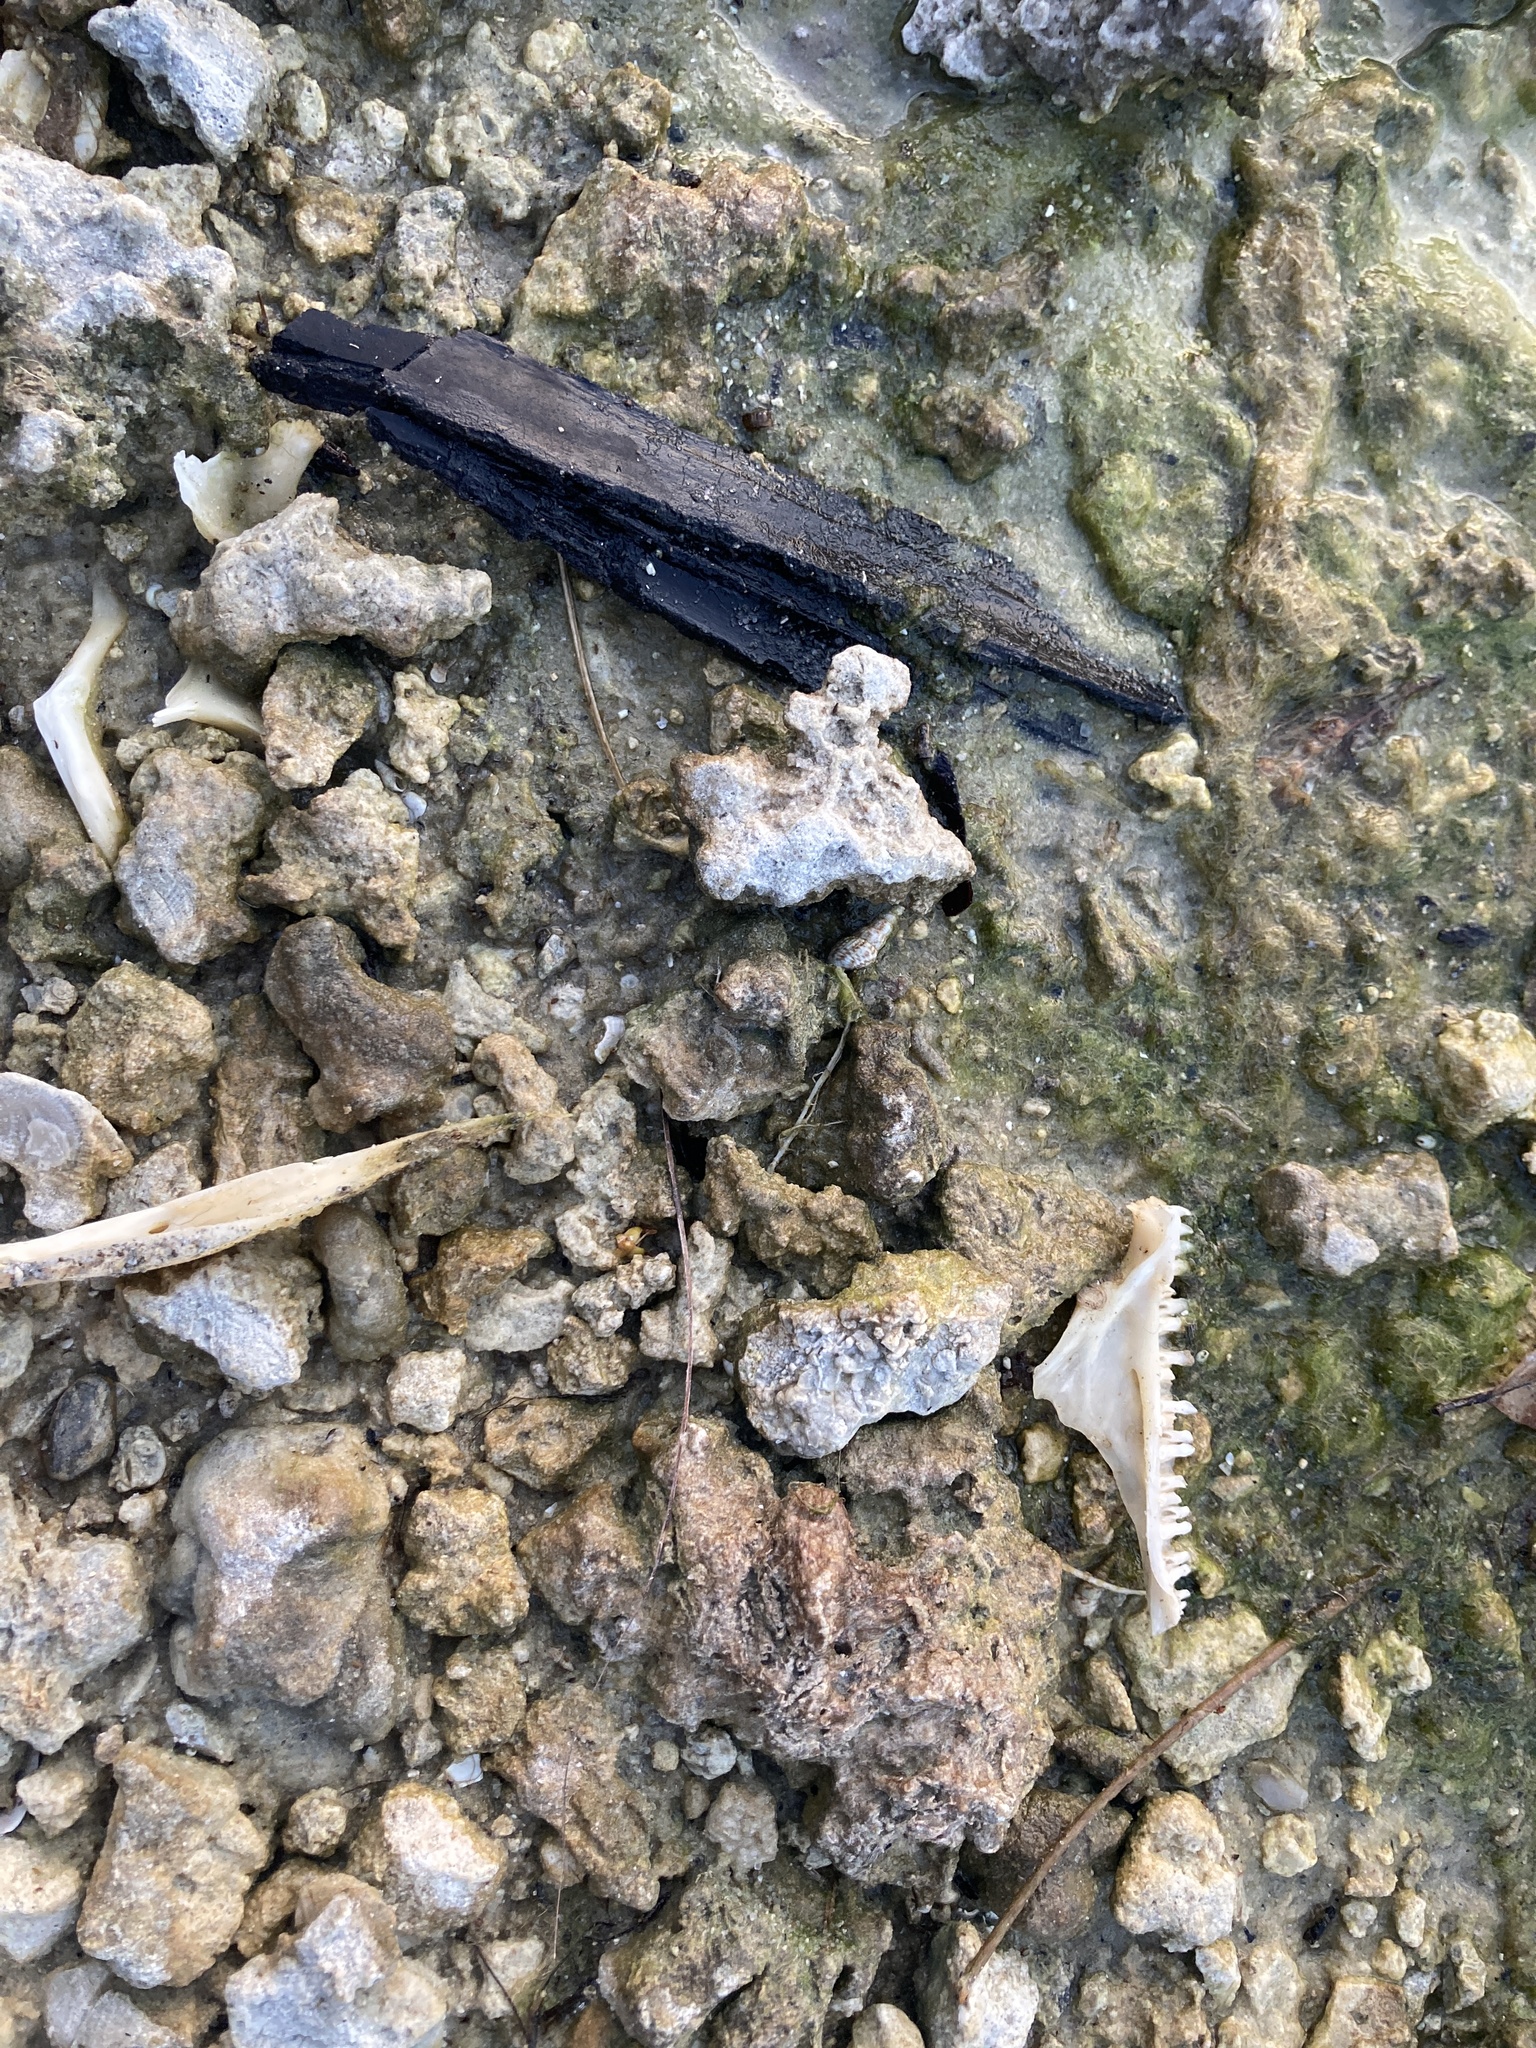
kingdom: Animalia
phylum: Chordata
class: Squamata
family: Iguanidae
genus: Iguana
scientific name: Iguana iguana
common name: Green iguana
